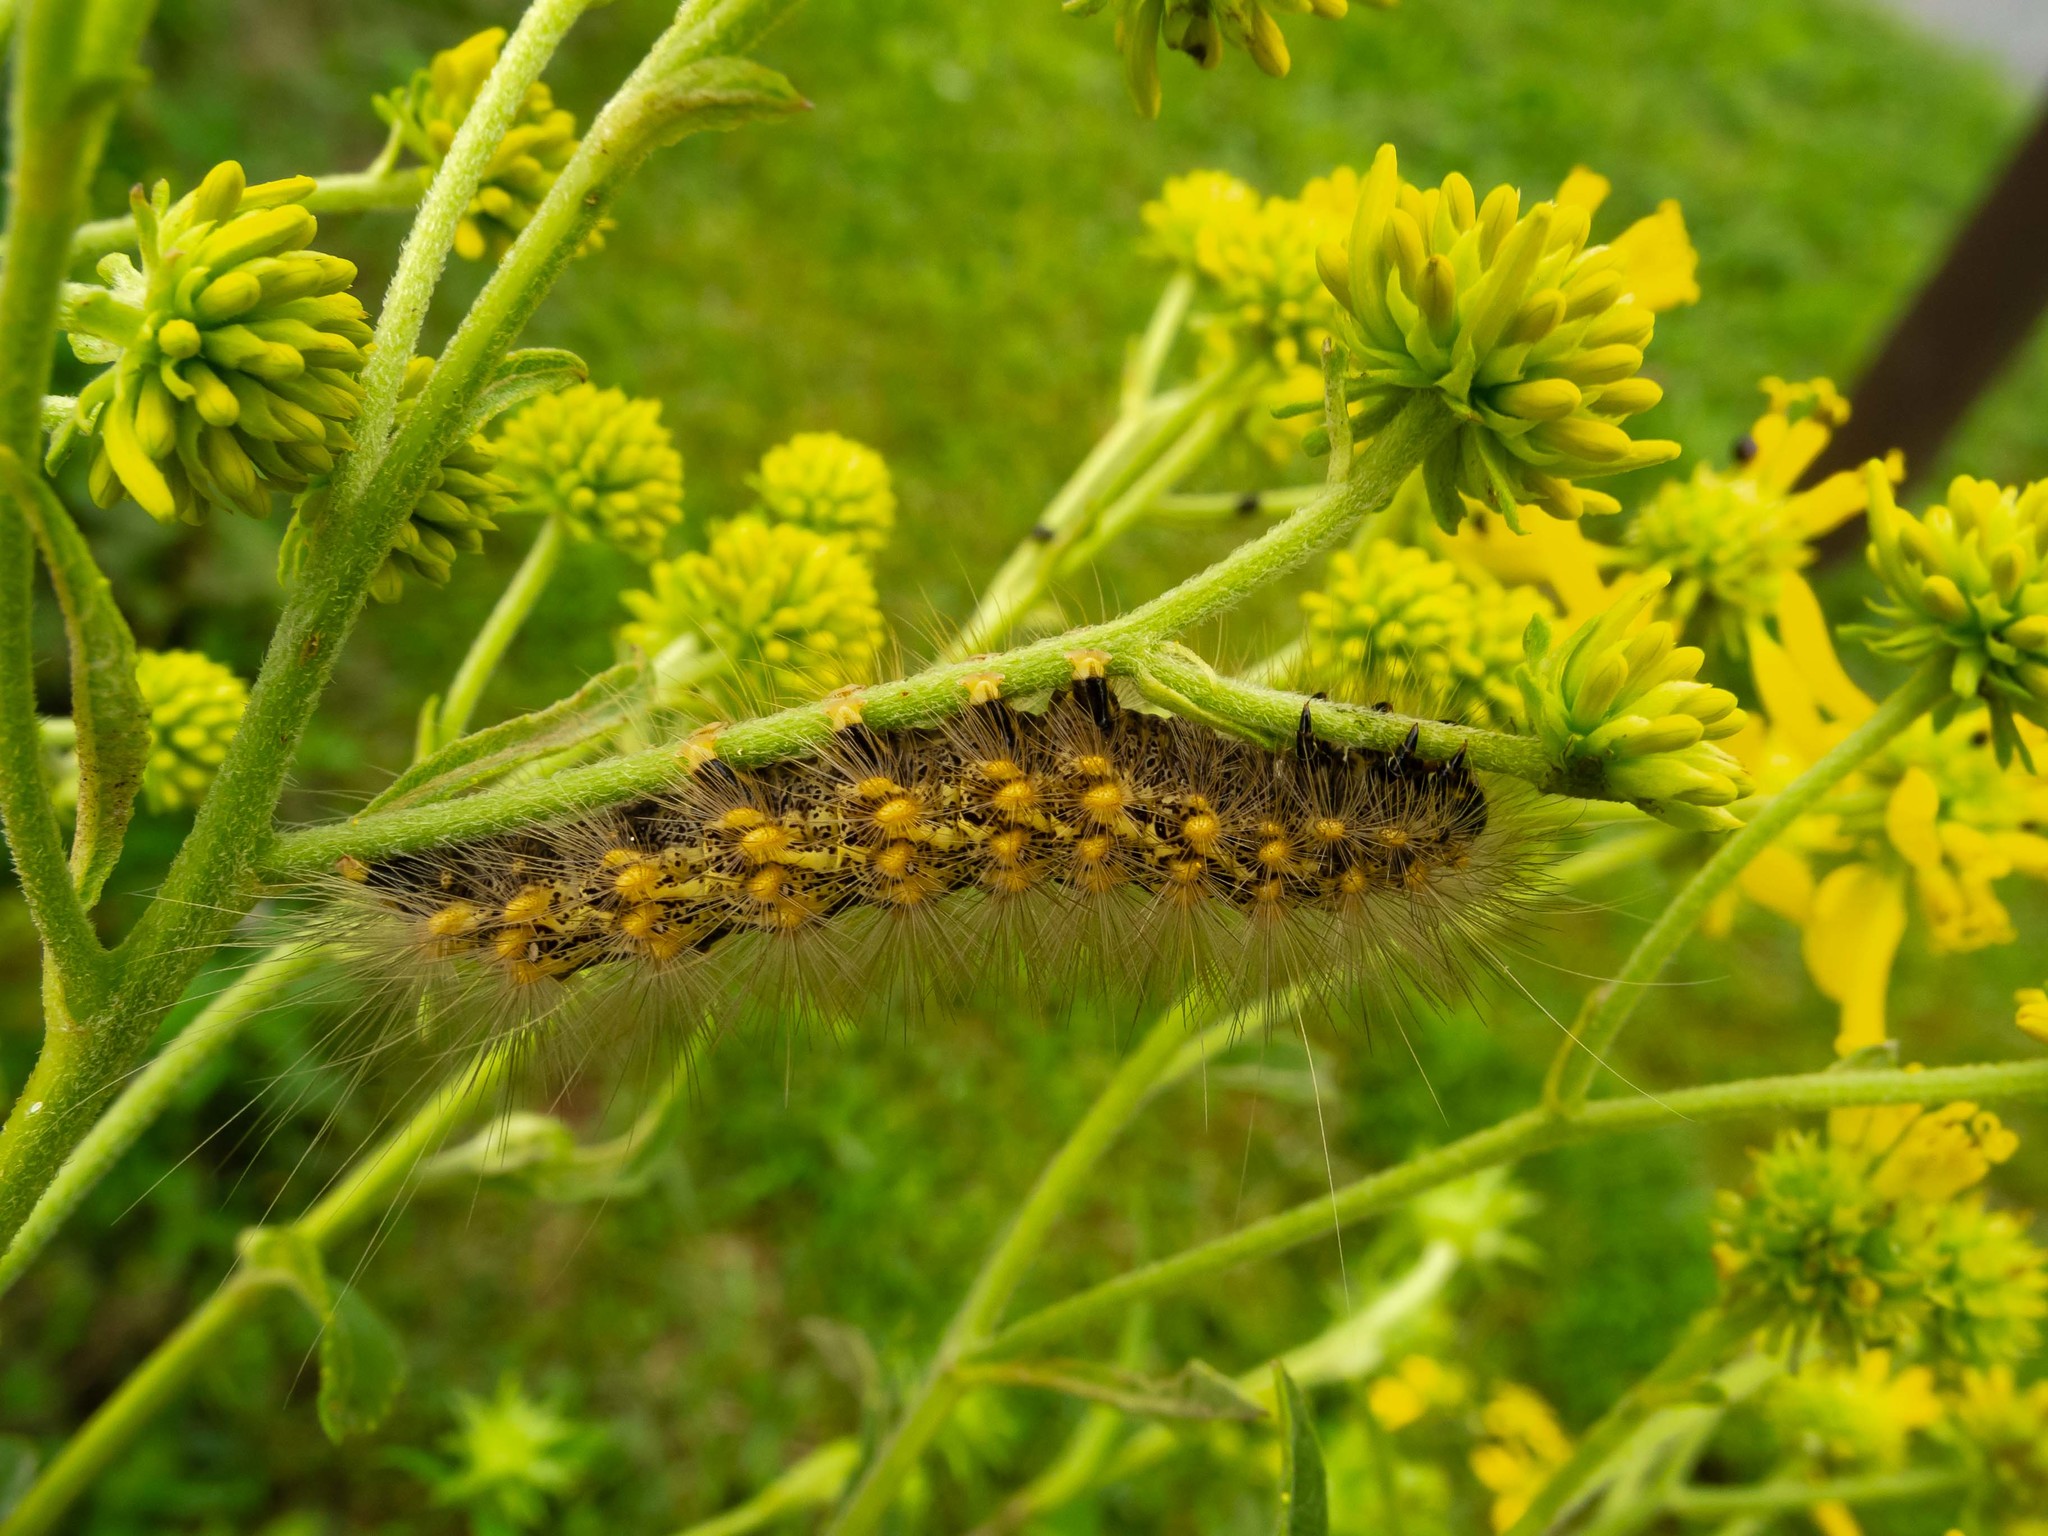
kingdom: Animalia
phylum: Arthropoda
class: Insecta
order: Lepidoptera
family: Erebidae
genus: Spilosoma
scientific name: Spilosoma virginica
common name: Virginia tiger moth
